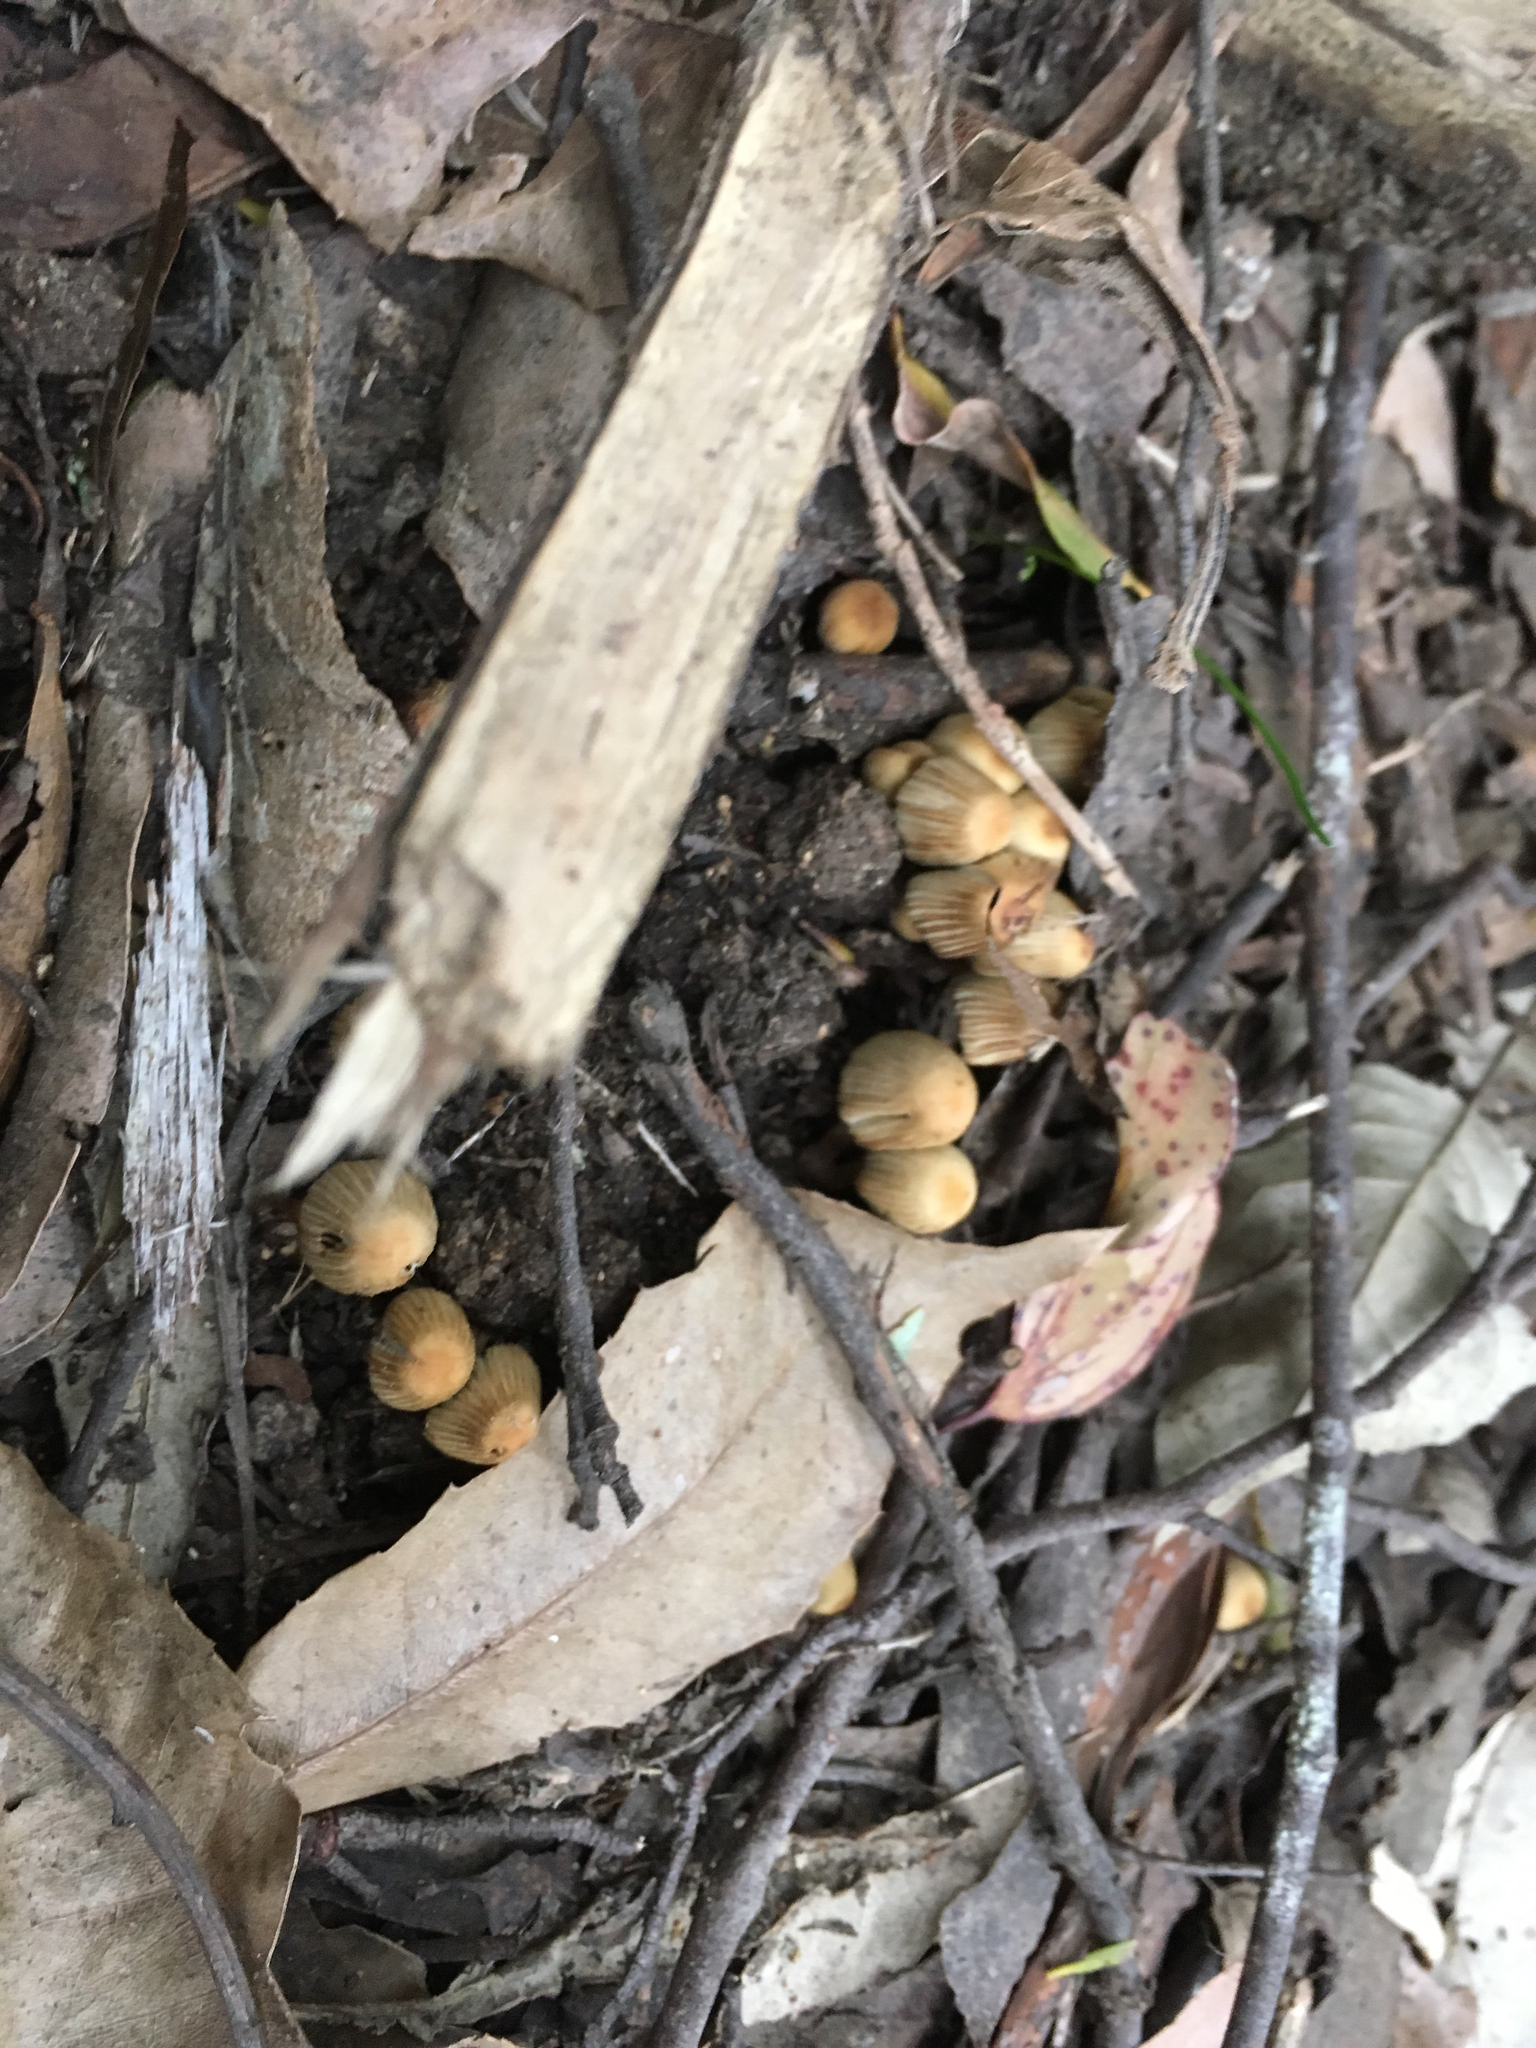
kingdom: Fungi
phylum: Basidiomycota
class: Agaricomycetes
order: Agaricales
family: Psathyrellaceae
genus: Coprinellus
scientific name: Coprinellus disseminatus
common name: Fairies' bonnets
